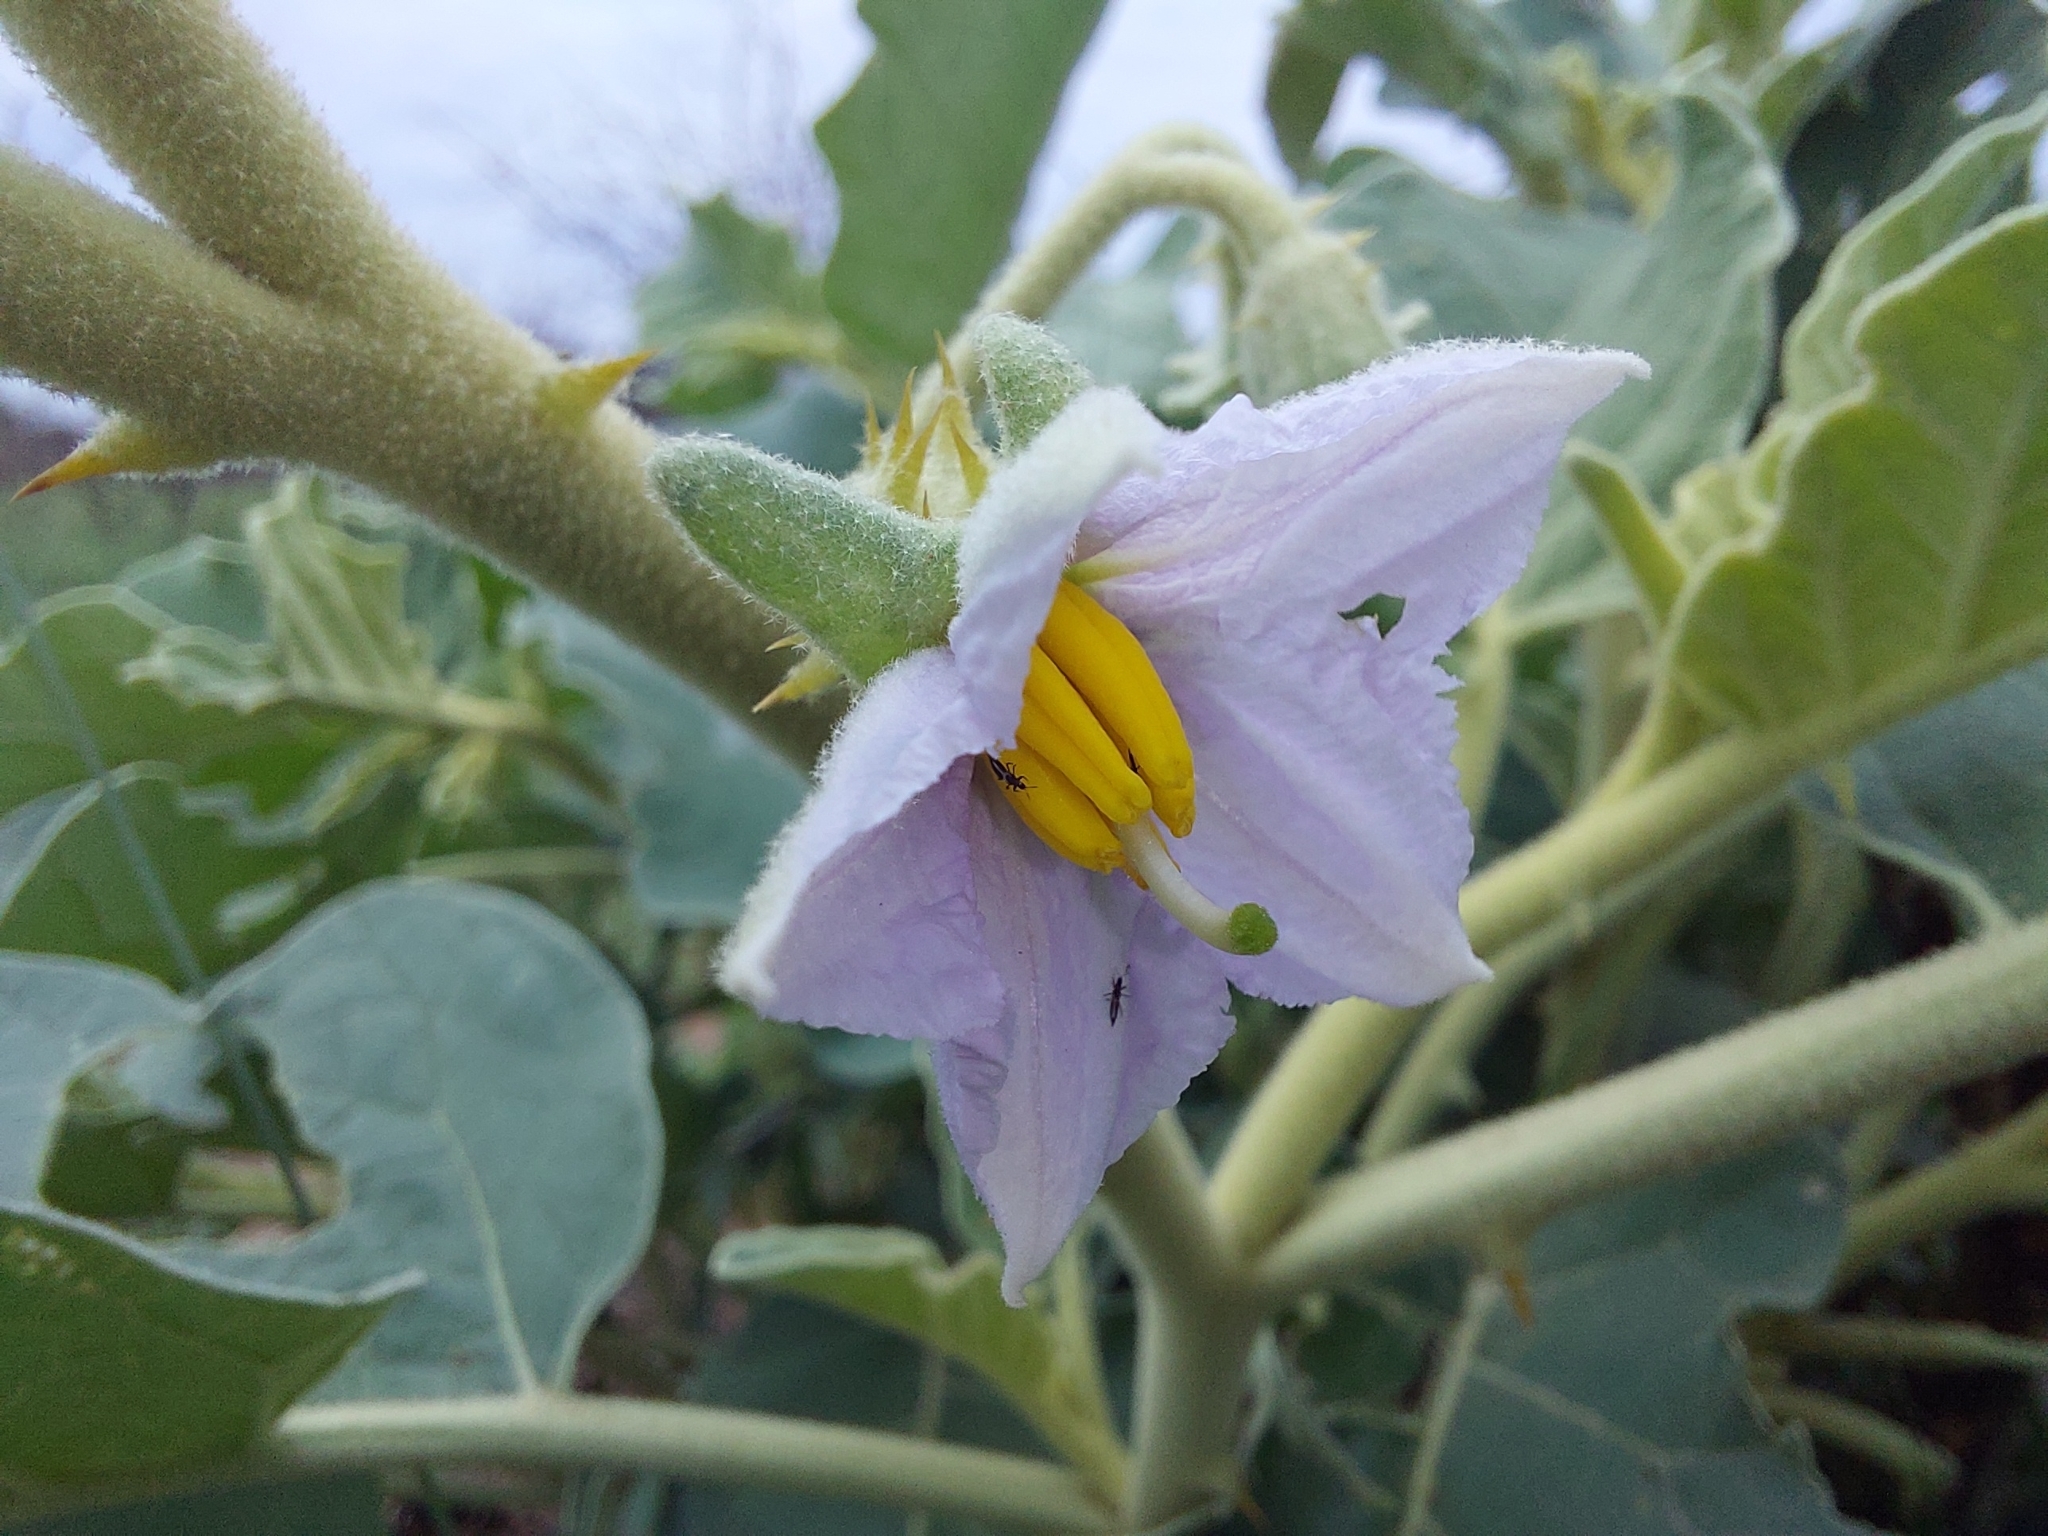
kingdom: Plantae
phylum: Tracheophyta
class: Magnoliopsida
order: Solanales
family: Solanaceae
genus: Solanum
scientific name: Solanum lichtensteinii
